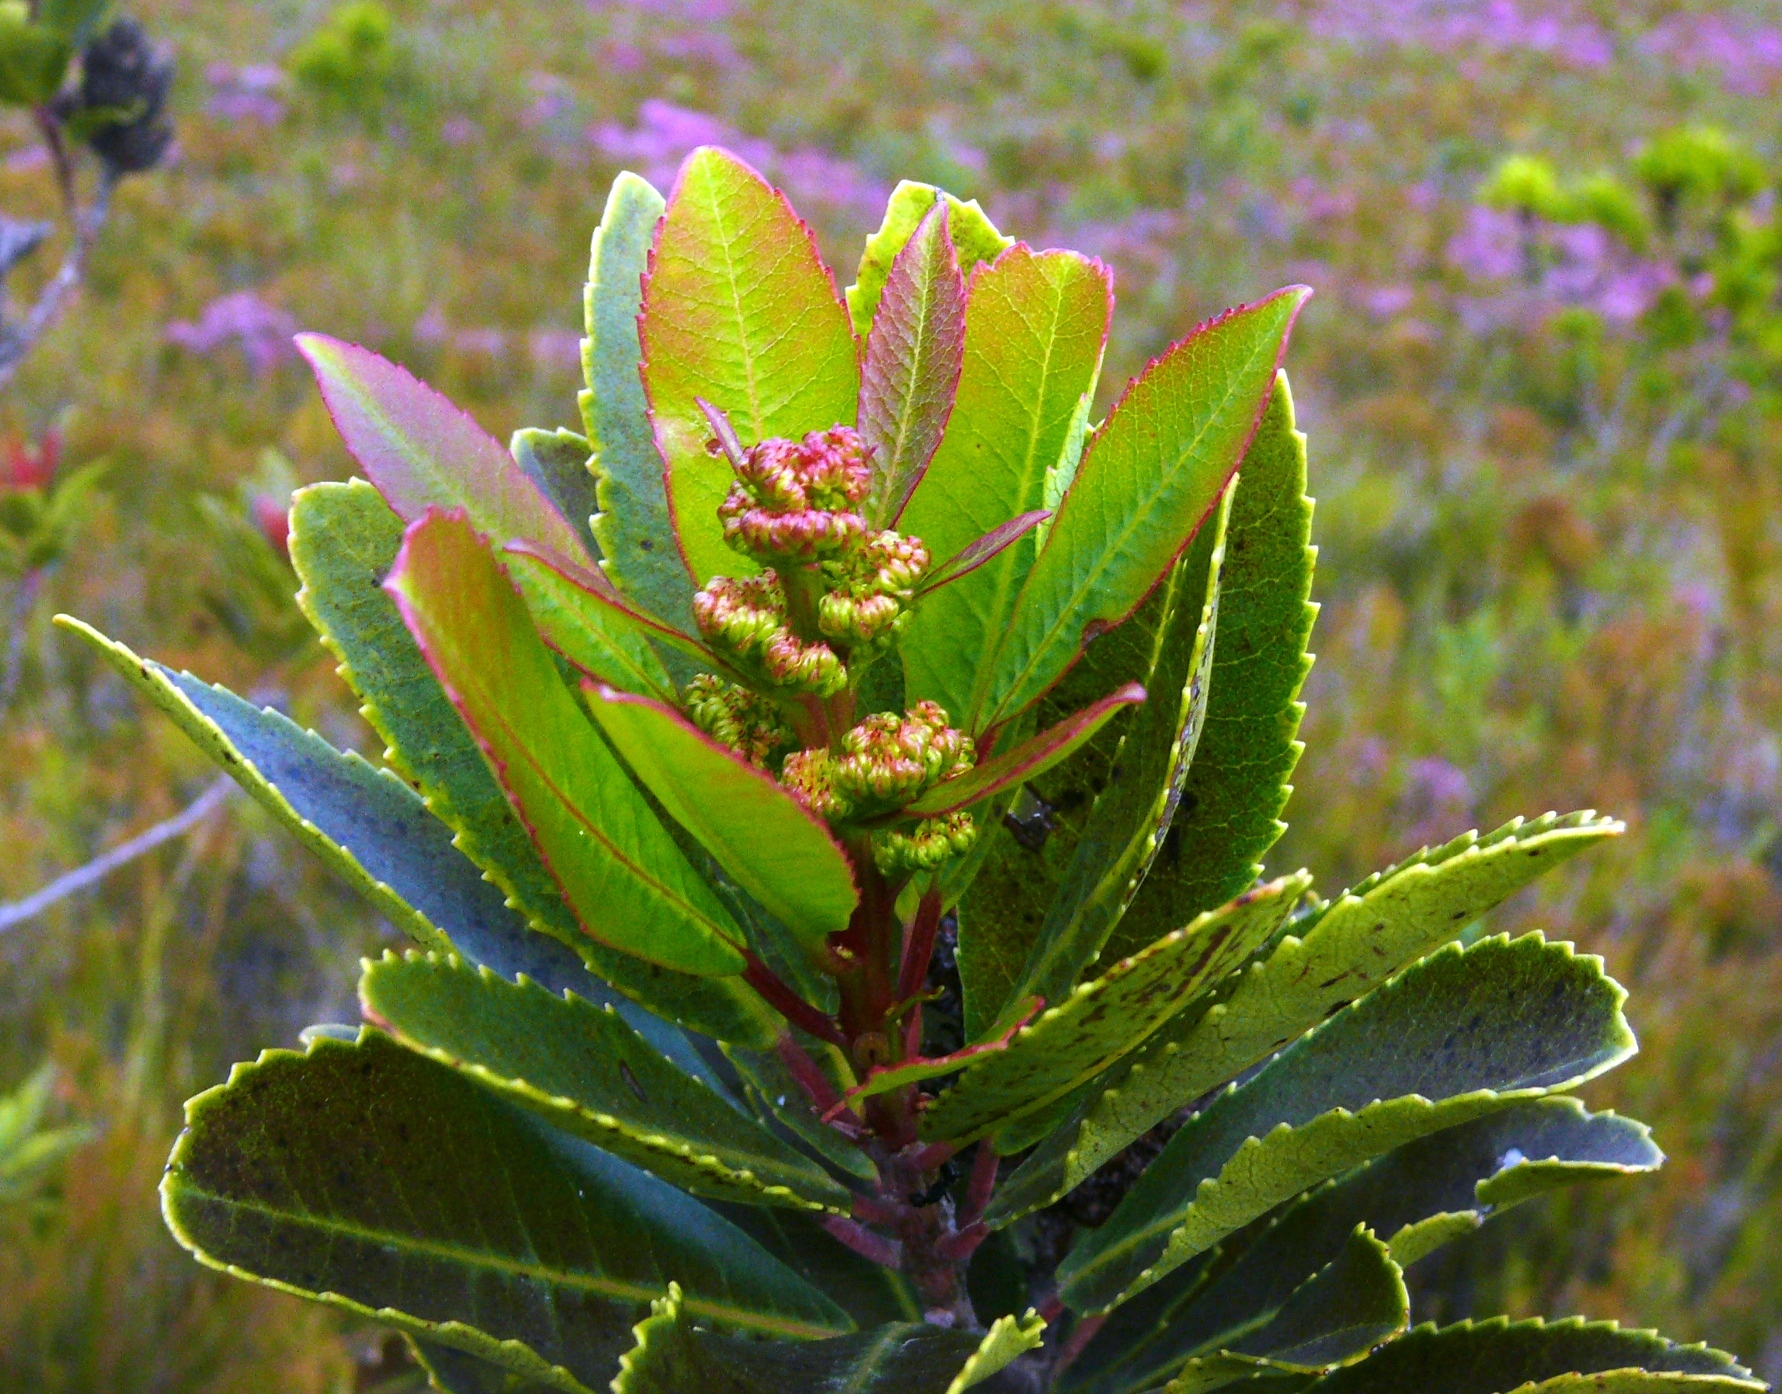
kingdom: Plantae
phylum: Tracheophyta
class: Magnoliopsida
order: Sapindales
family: Anacardiaceae
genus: Laurophyllus
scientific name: Laurophyllus capensis
